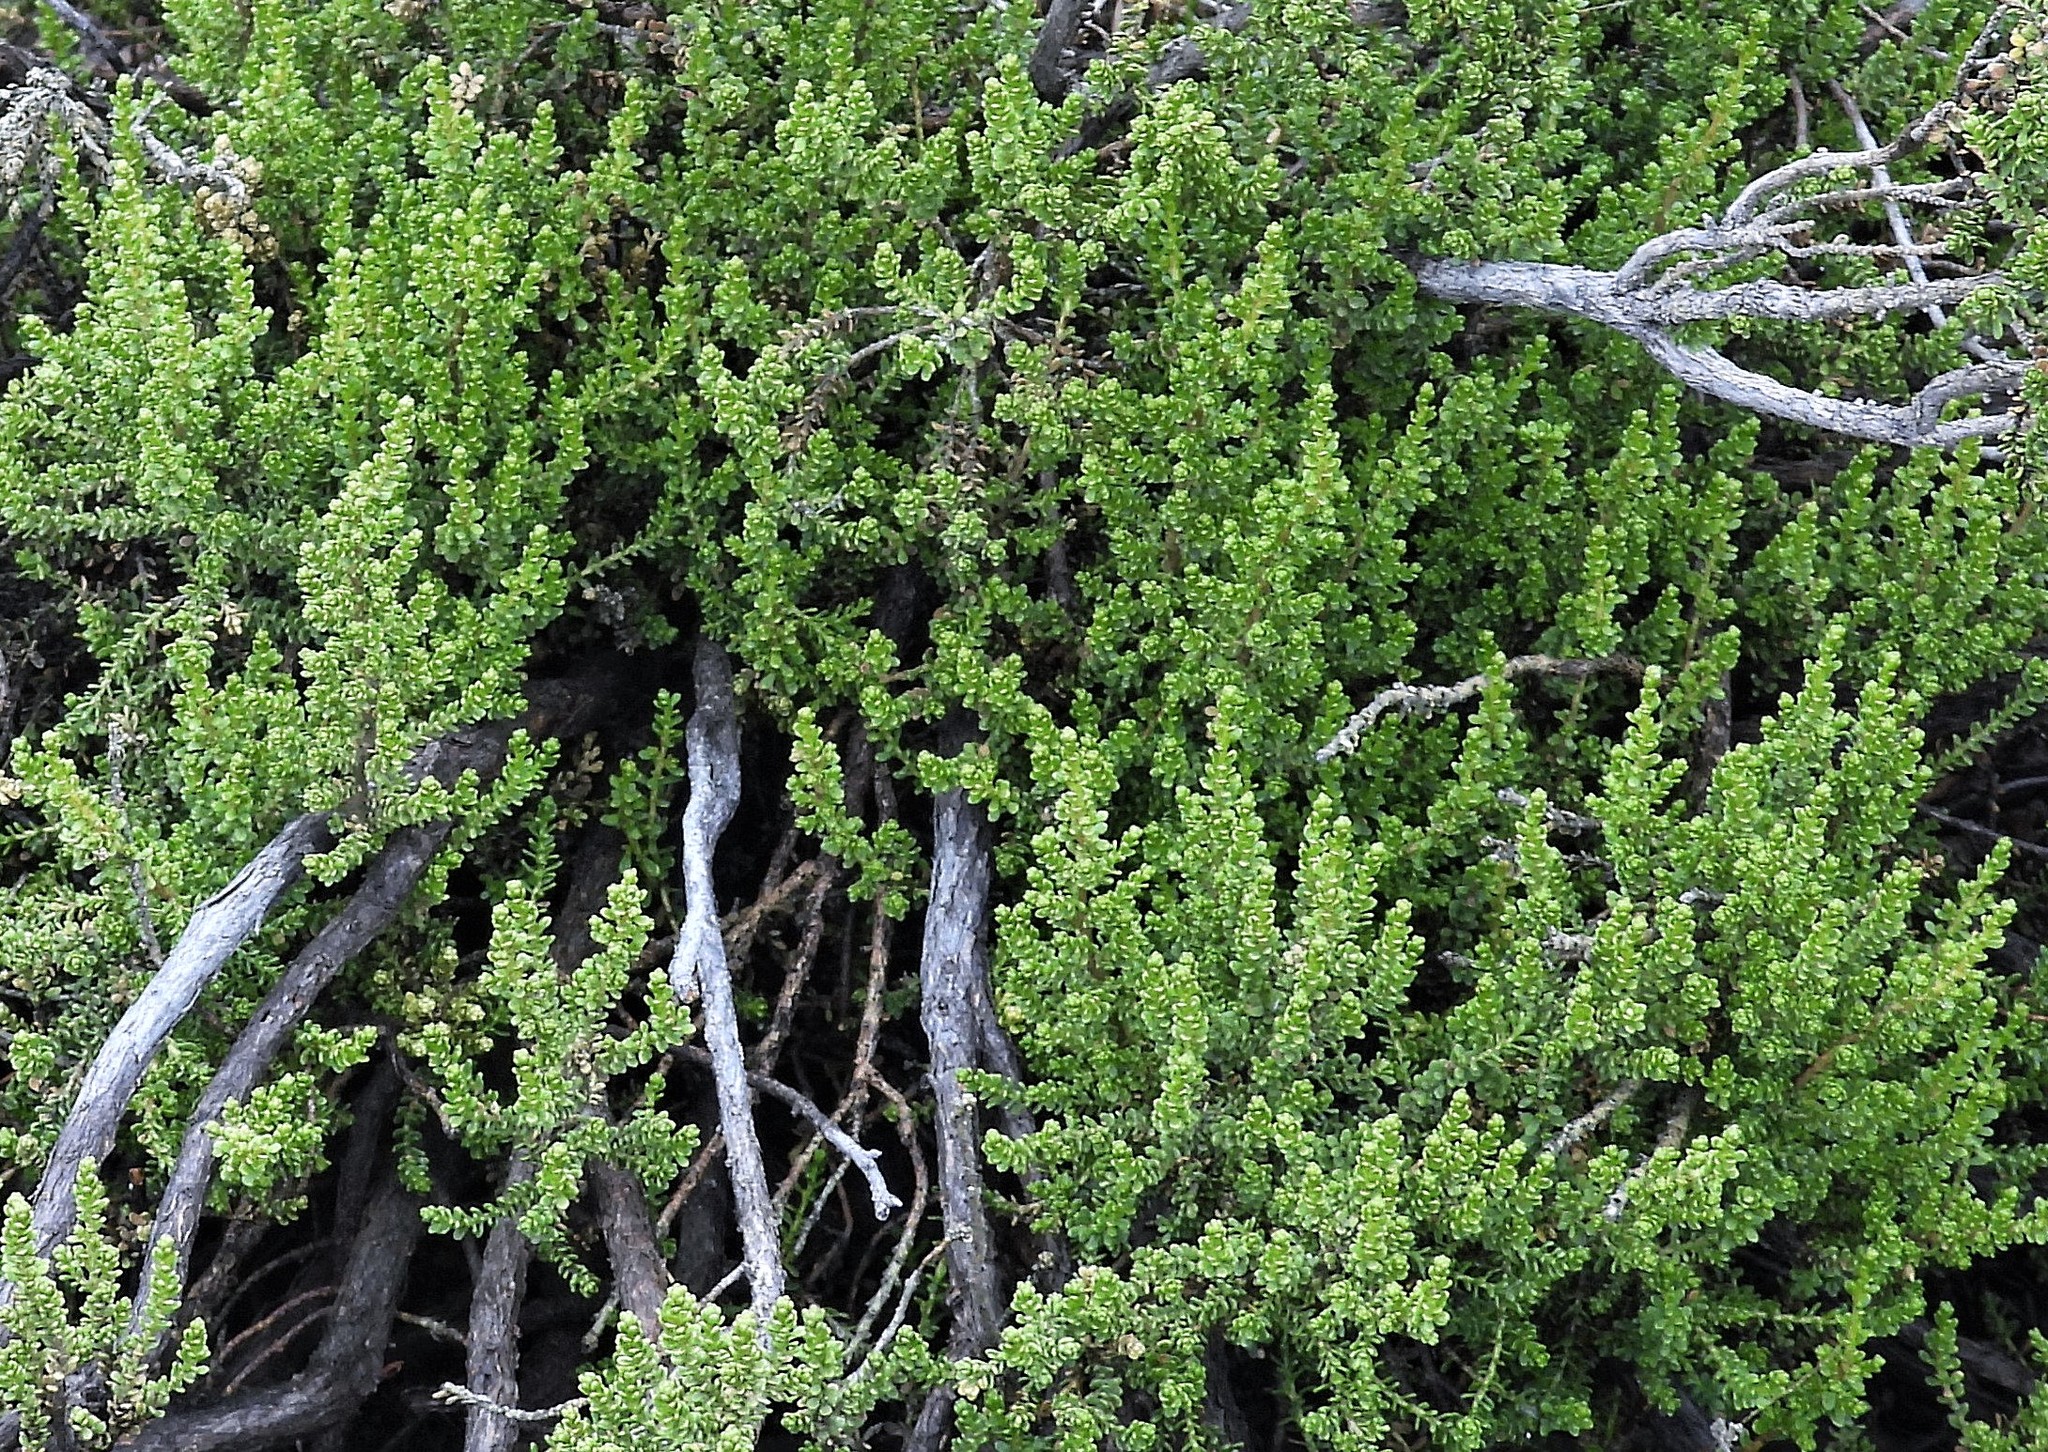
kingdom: Plantae
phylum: Tracheophyta
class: Magnoliopsida
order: Asterales
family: Asteraceae
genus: Chiliophyllum
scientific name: Chiliophyllum densifolium
